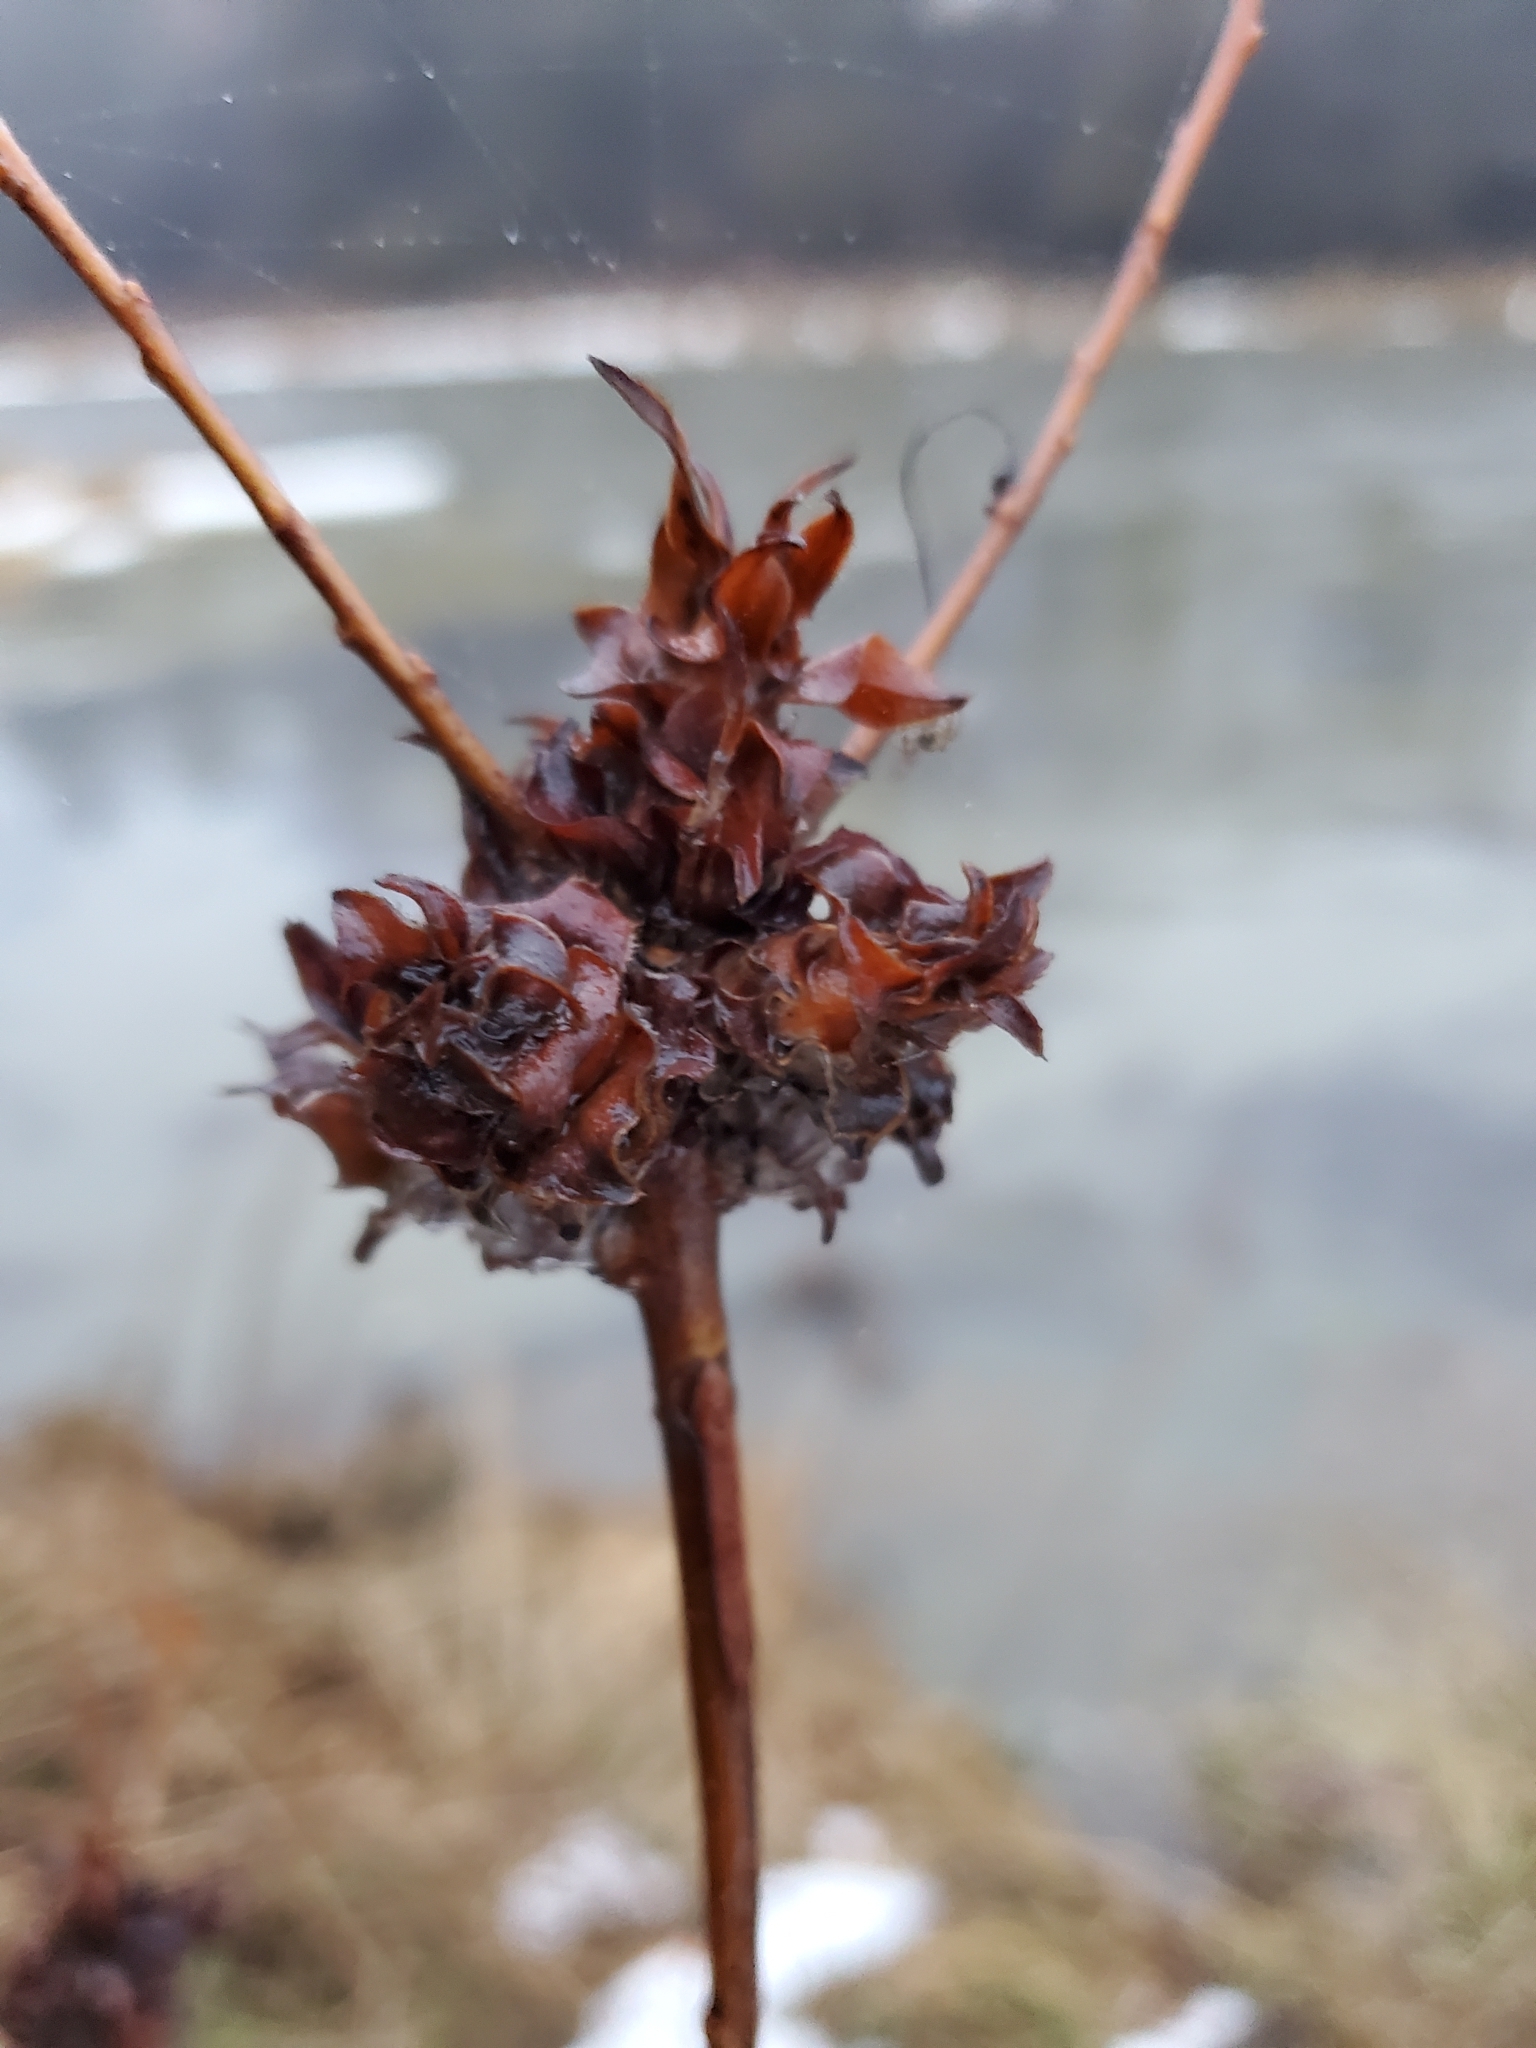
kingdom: Animalia
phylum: Arthropoda
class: Insecta
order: Diptera
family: Cecidomyiidae
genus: Rabdophaga
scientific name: Rabdophaga salicisbrassicoides
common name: Willow cabbagegall midge
